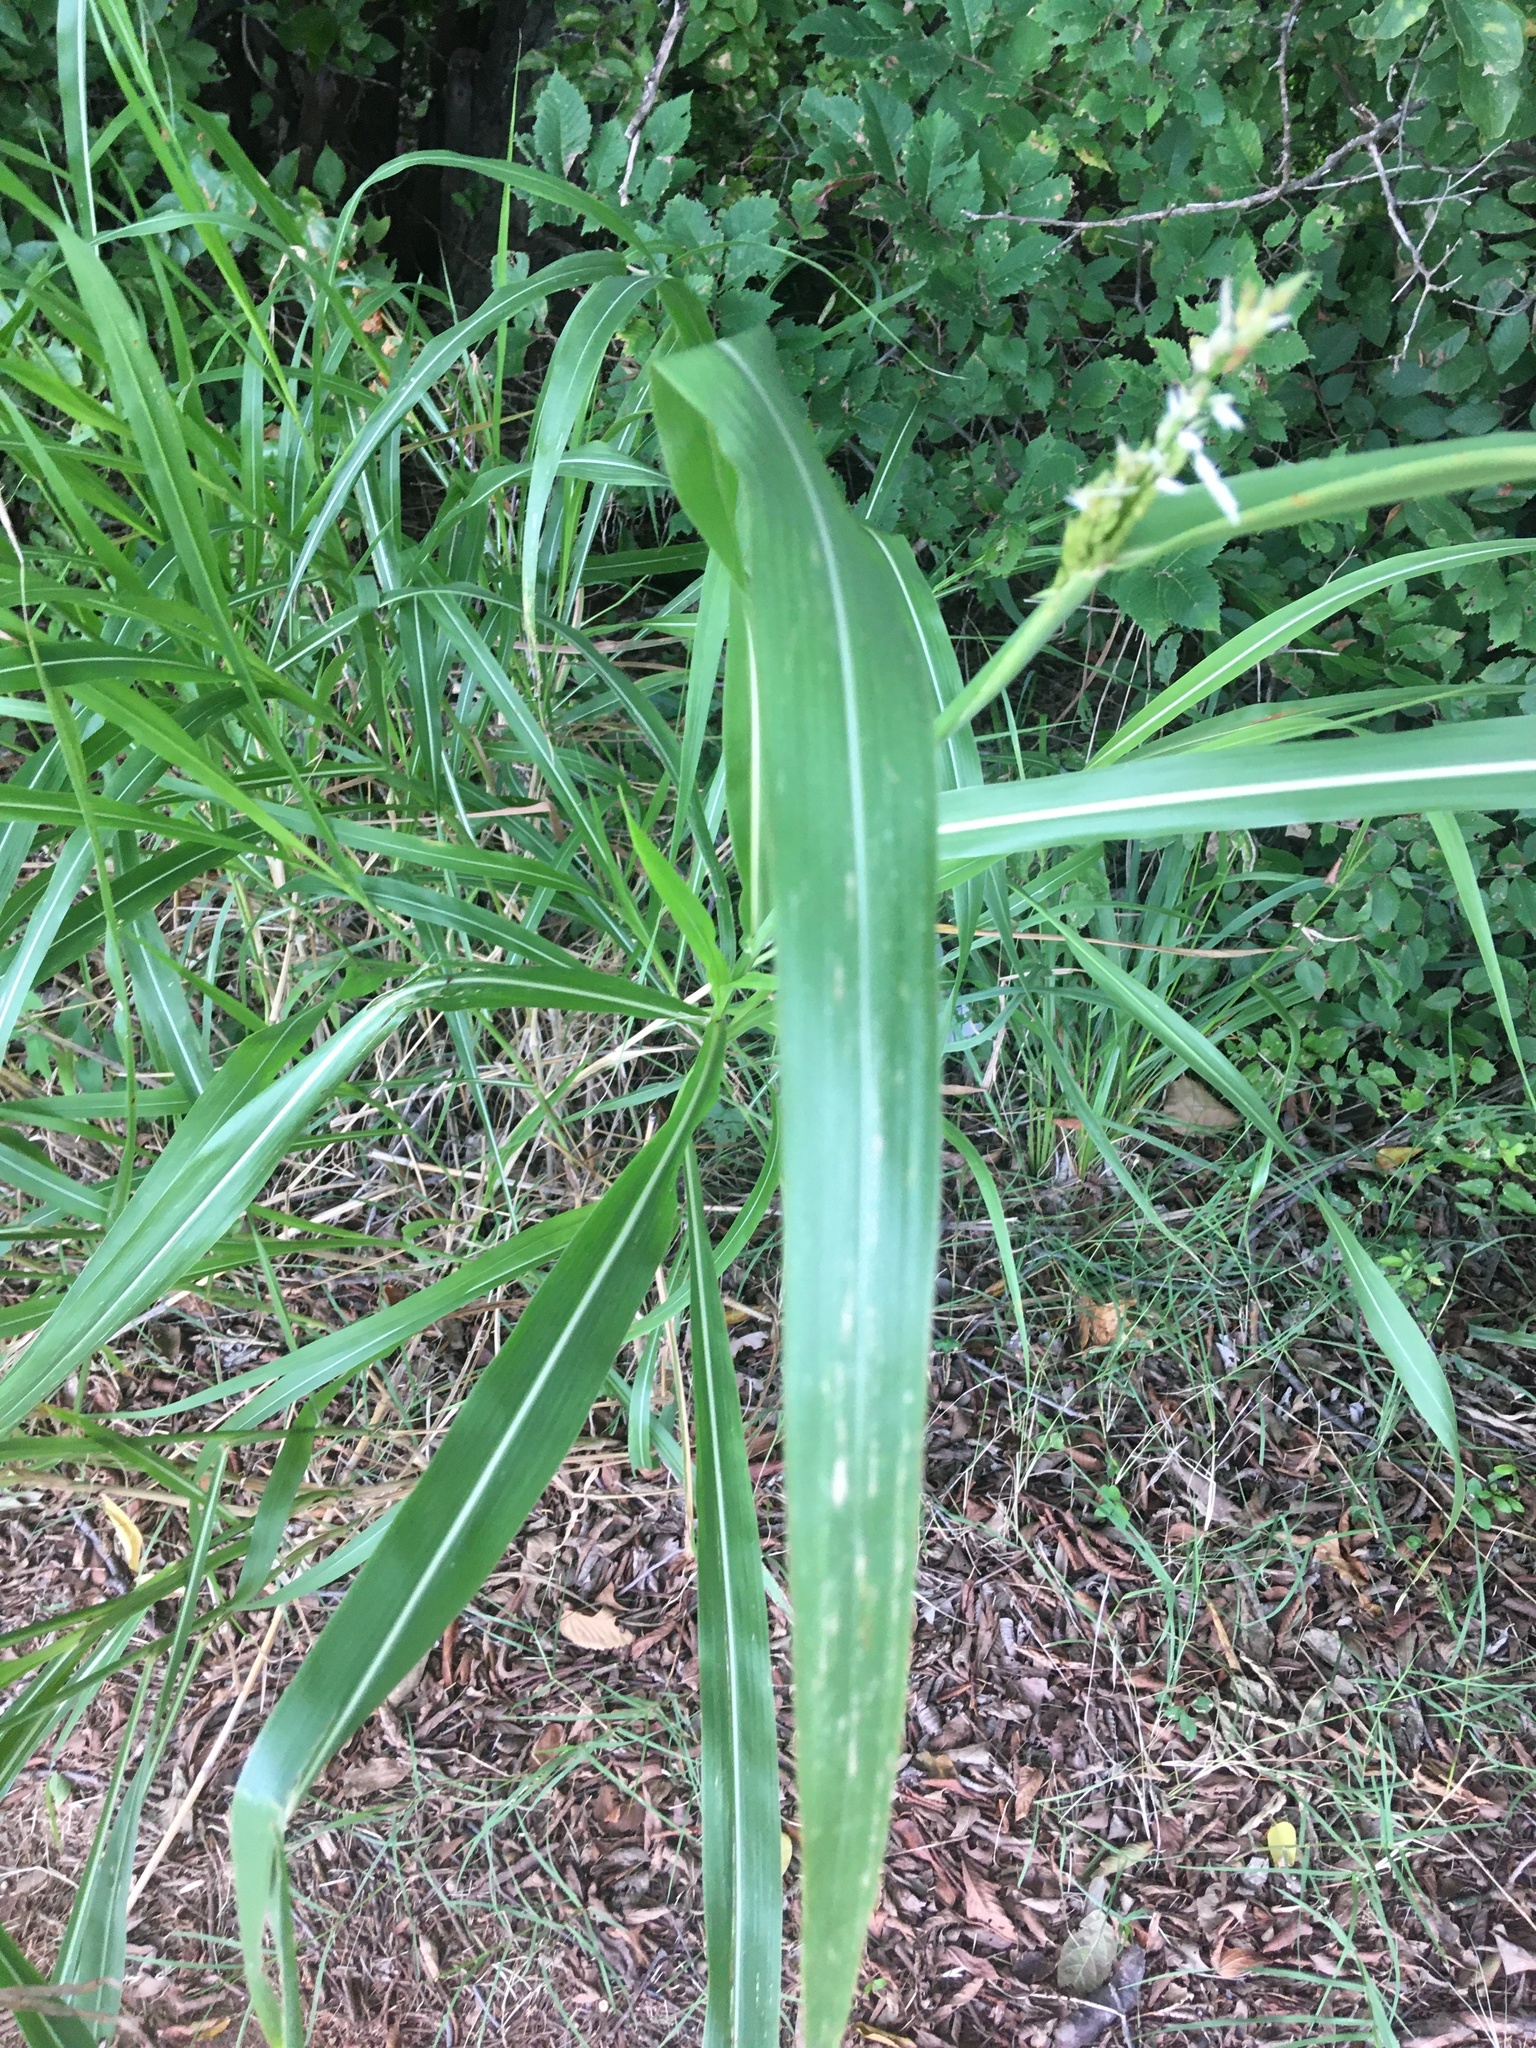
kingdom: Plantae
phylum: Tracheophyta
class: Liliopsida
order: Poales
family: Poaceae
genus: Sorghum
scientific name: Sorghum halepense
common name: Johnson-grass
